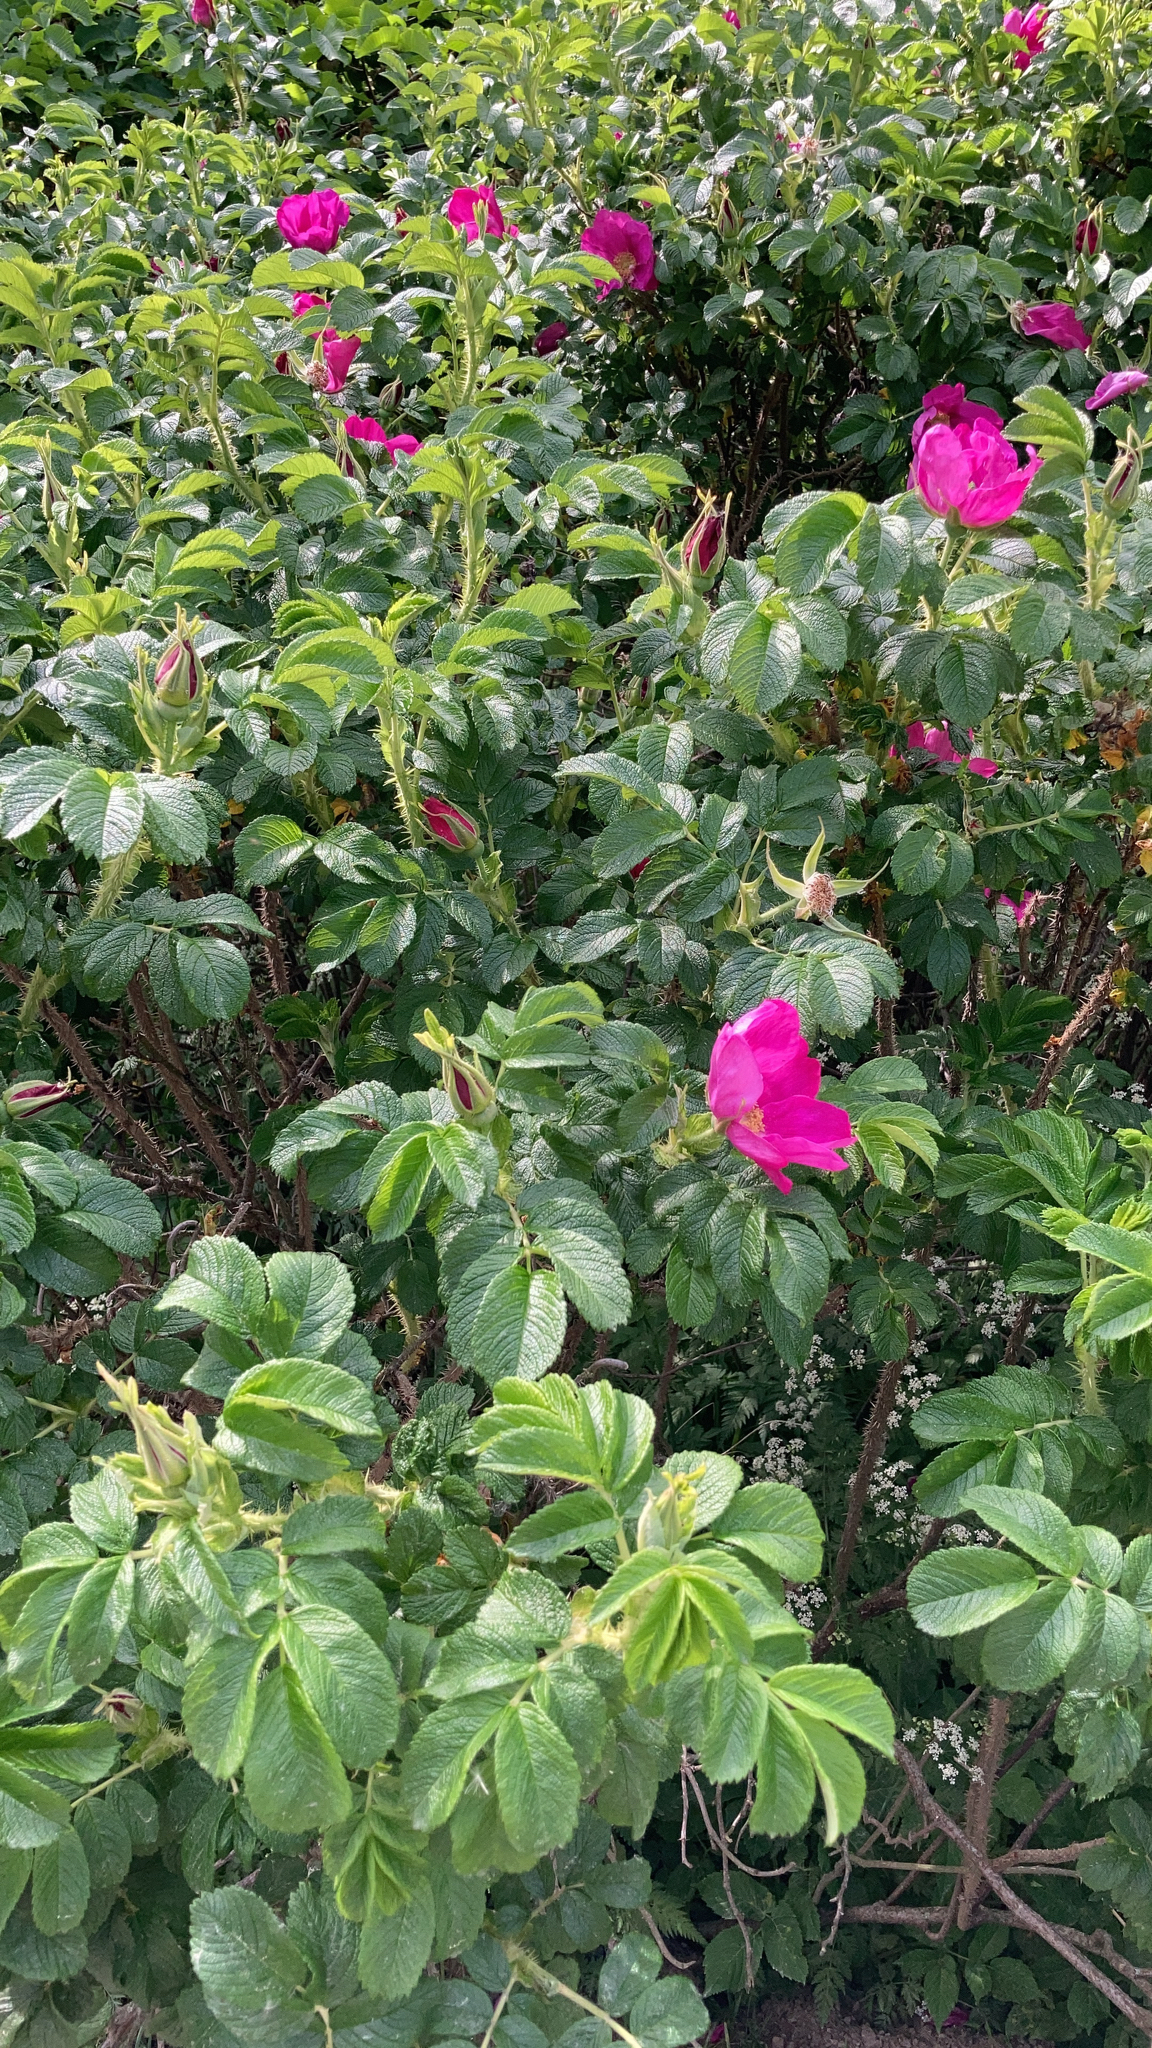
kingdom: Plantae
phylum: Tracheophyta
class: Magnoliopsida
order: Rosales
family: Rosaceae
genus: Rosa
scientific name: Rosa rugosa
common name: Japanese rose
